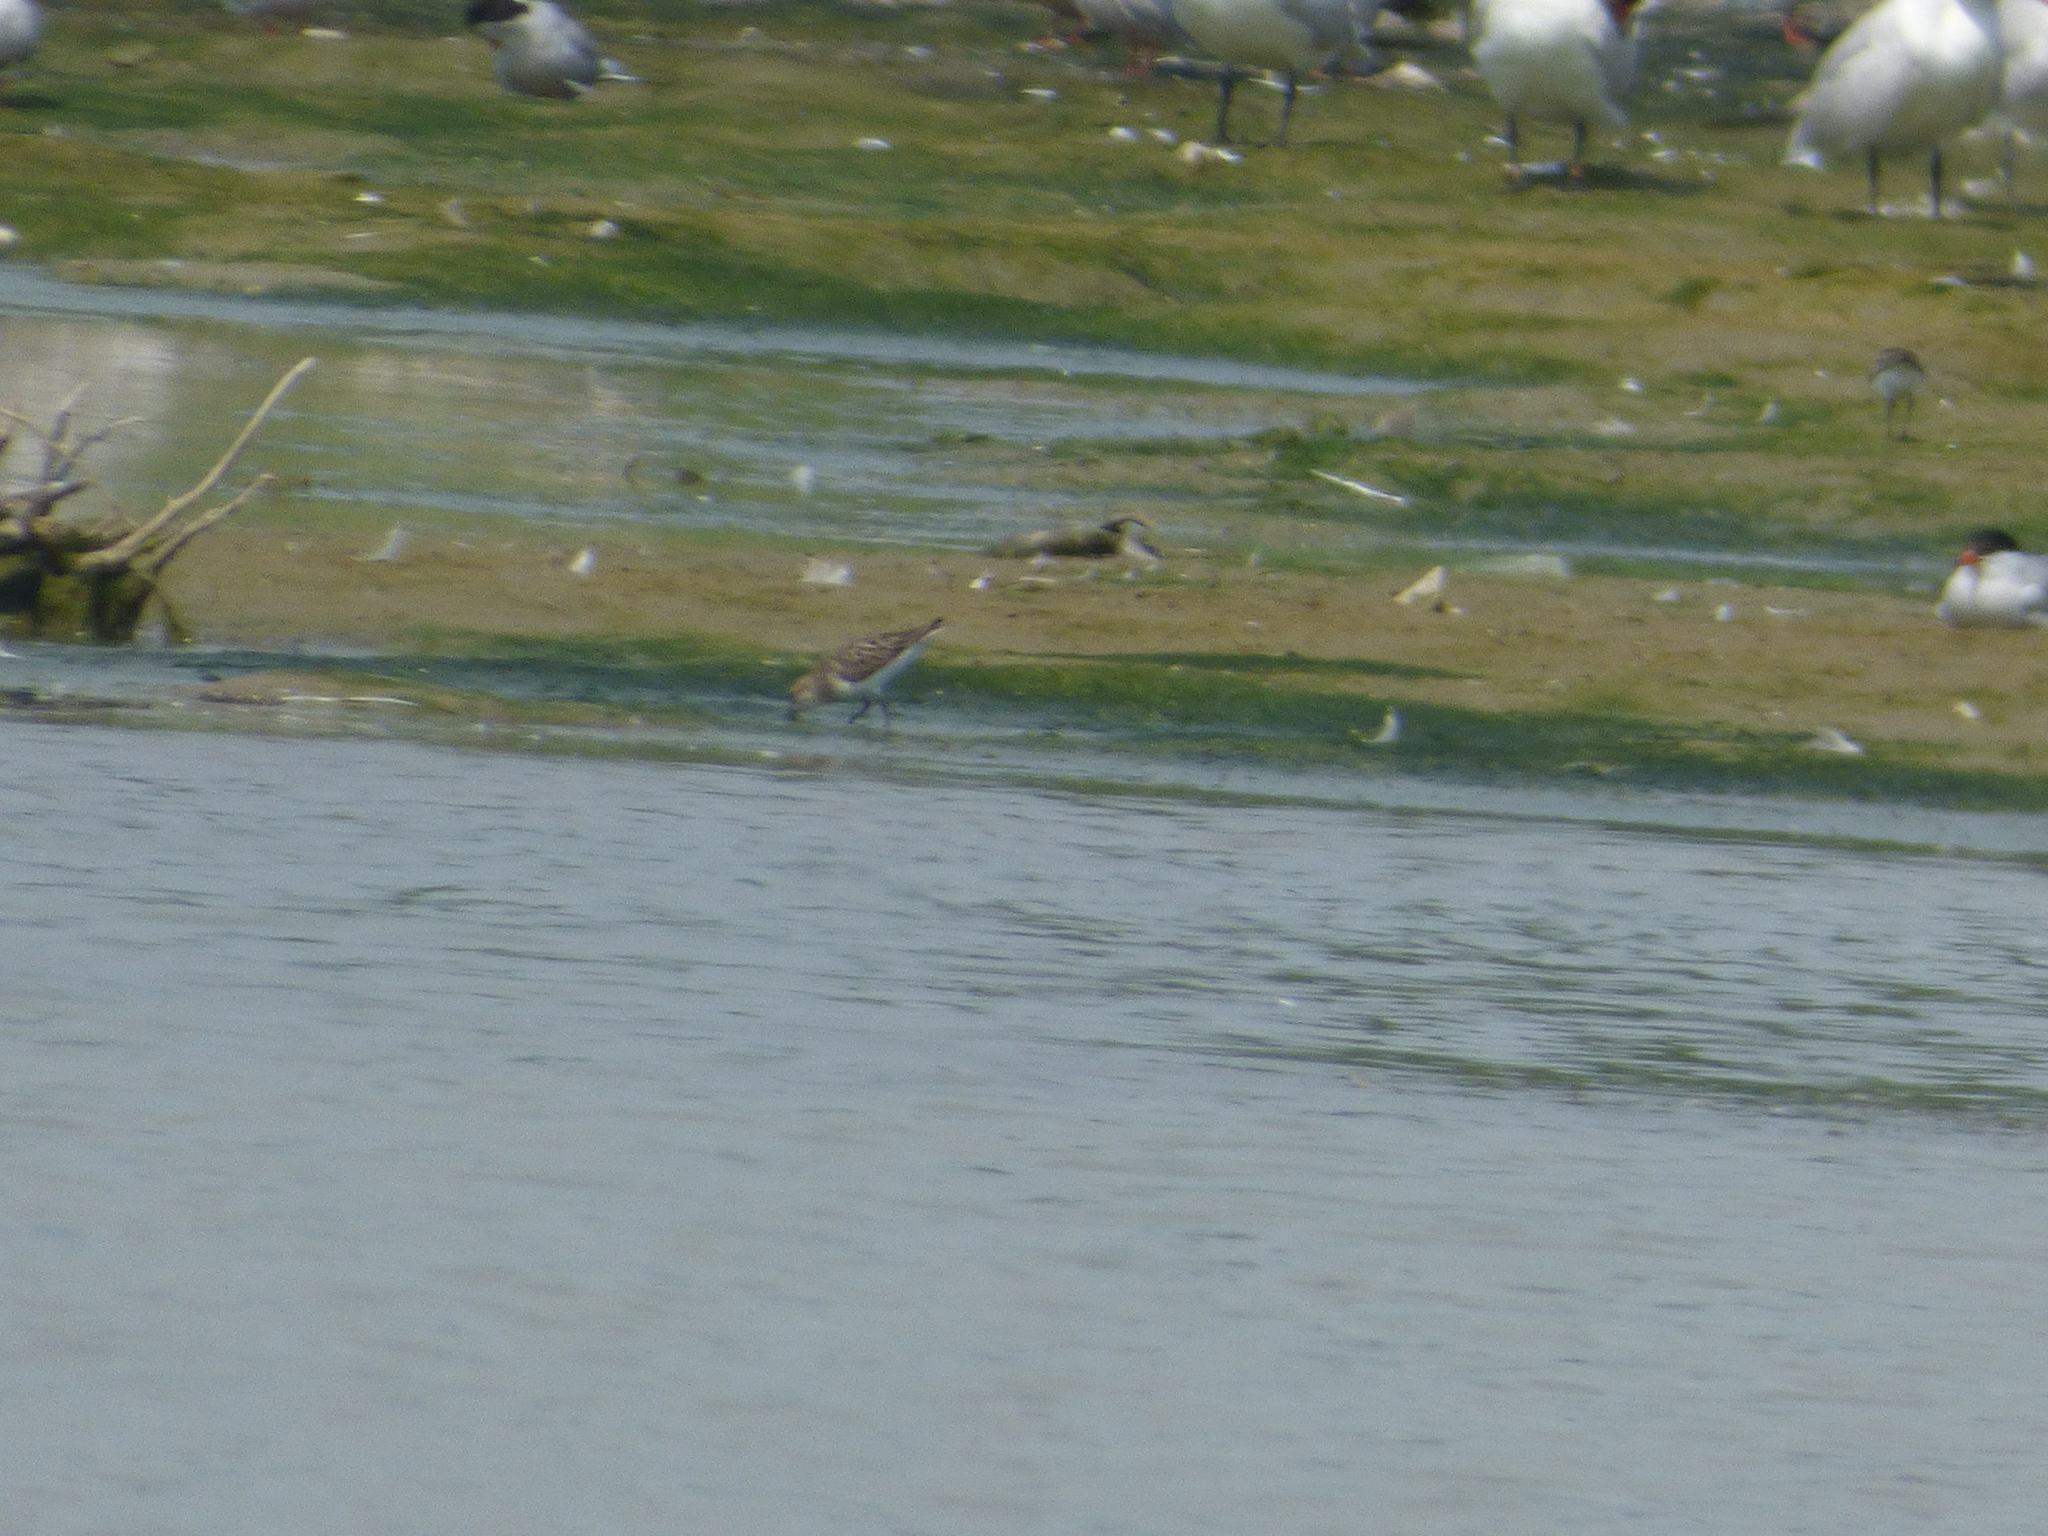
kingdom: Animalia
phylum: Chordata
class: Aves
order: Charadriiformes
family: Scolopacidae
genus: Calidris
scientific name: Calidris pusilla
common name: Semipalmated sandpiper
